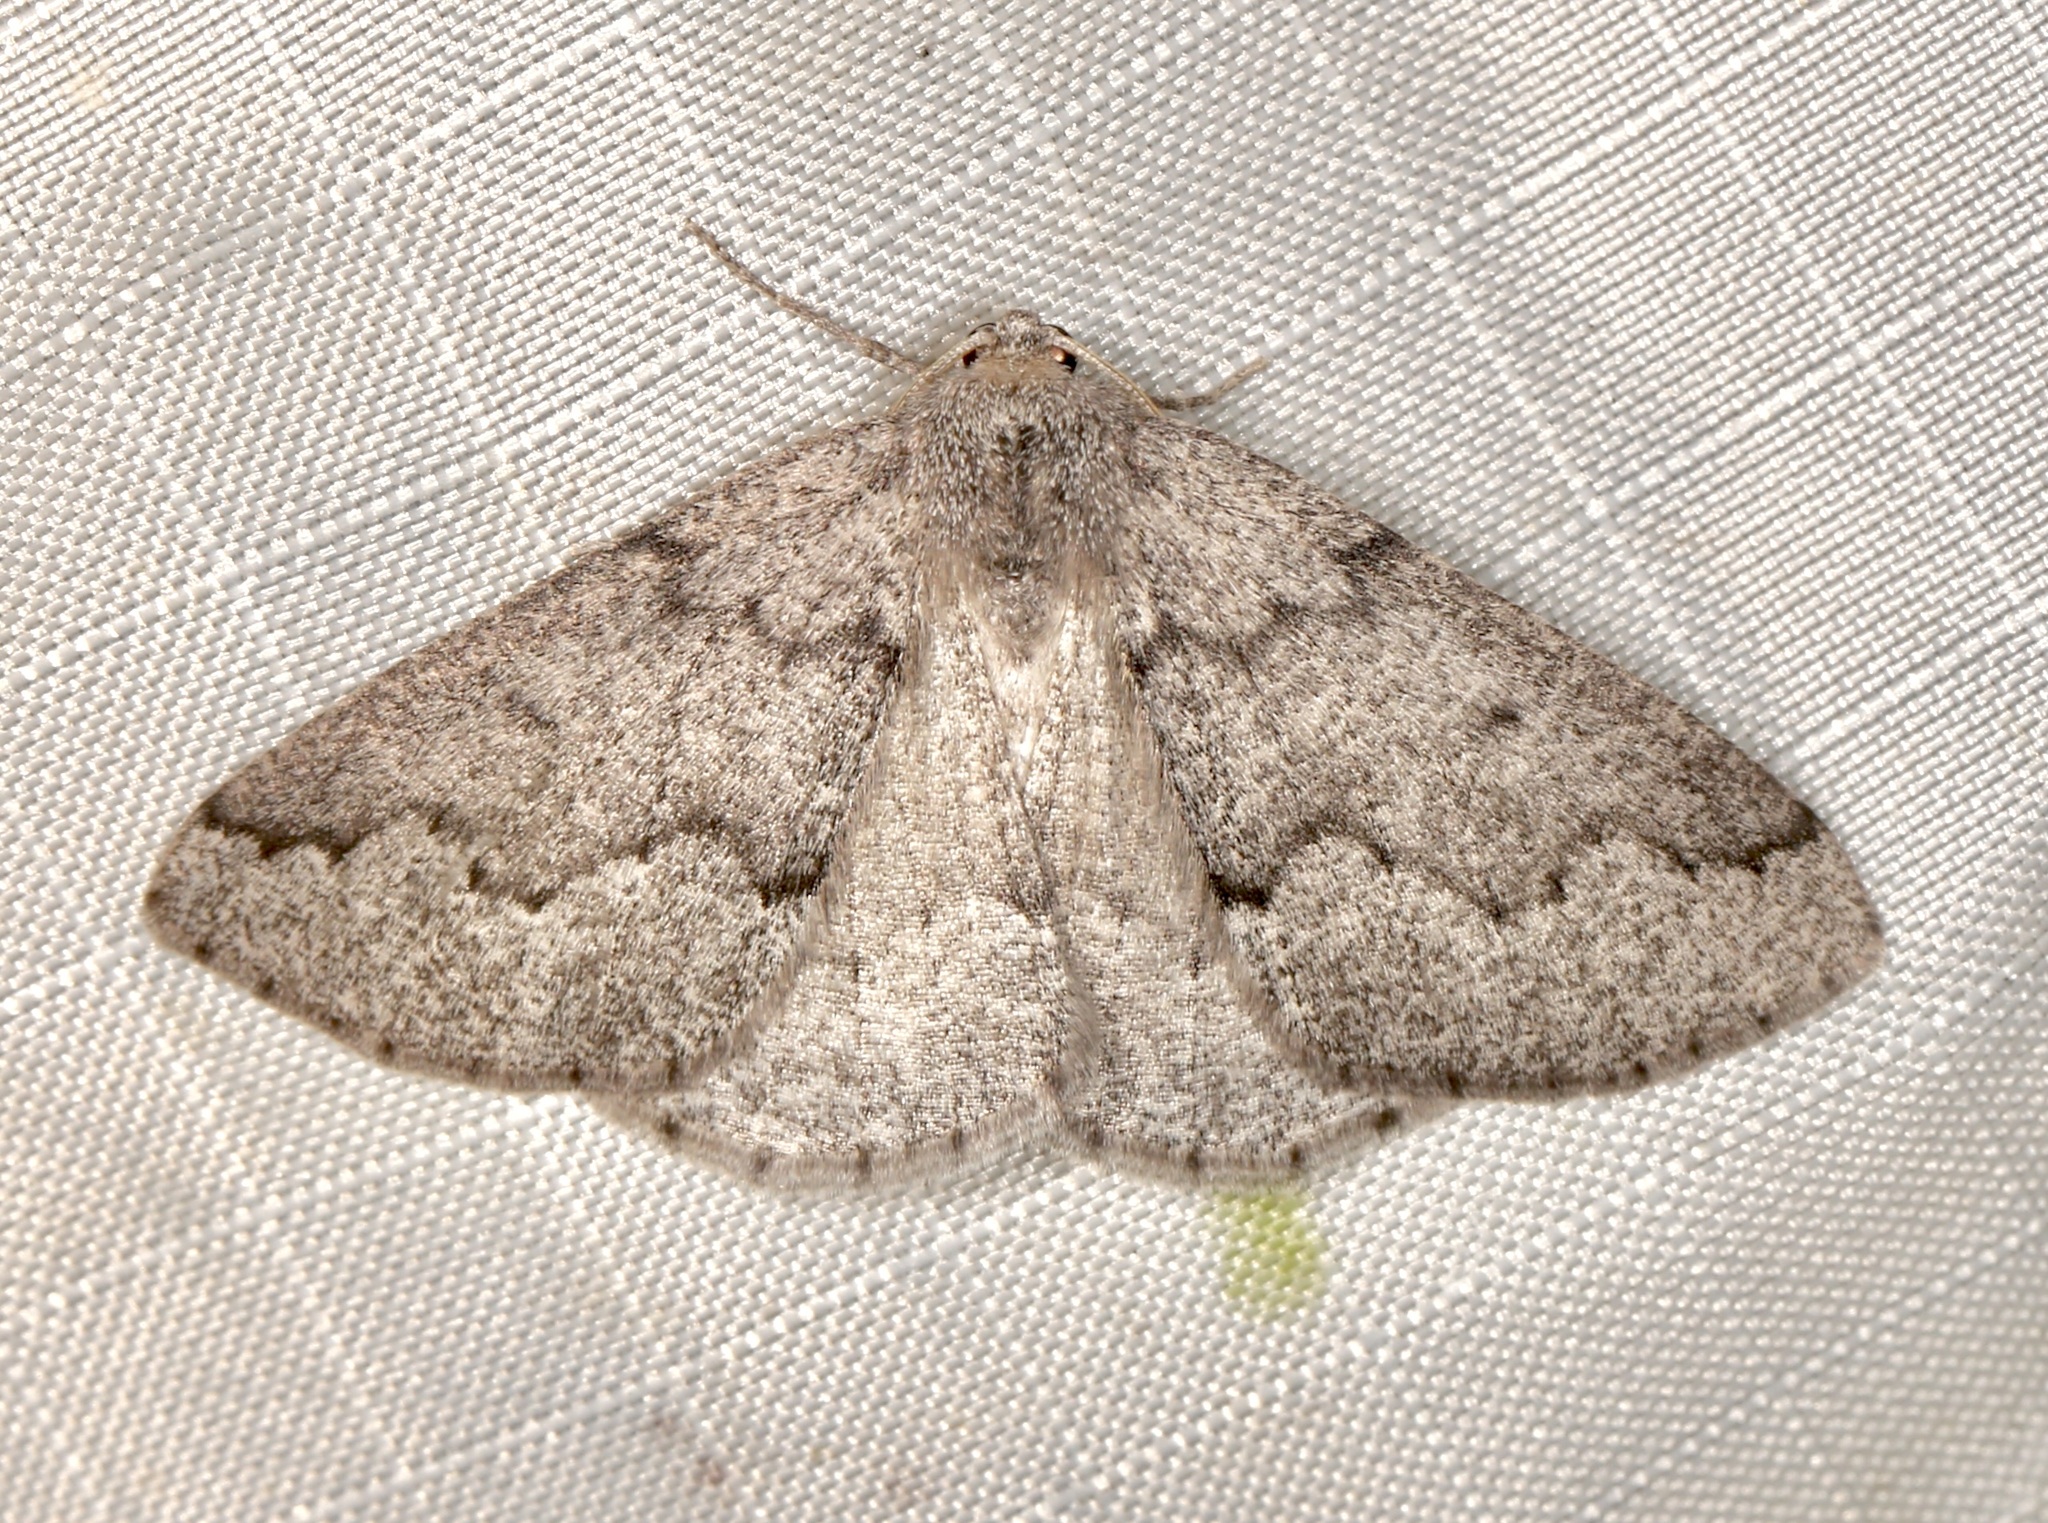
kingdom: Animalia
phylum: Arthropoda
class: Insecta
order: Lepidoptera
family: Geometridae
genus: Sabulodes
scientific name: Sabulodes
